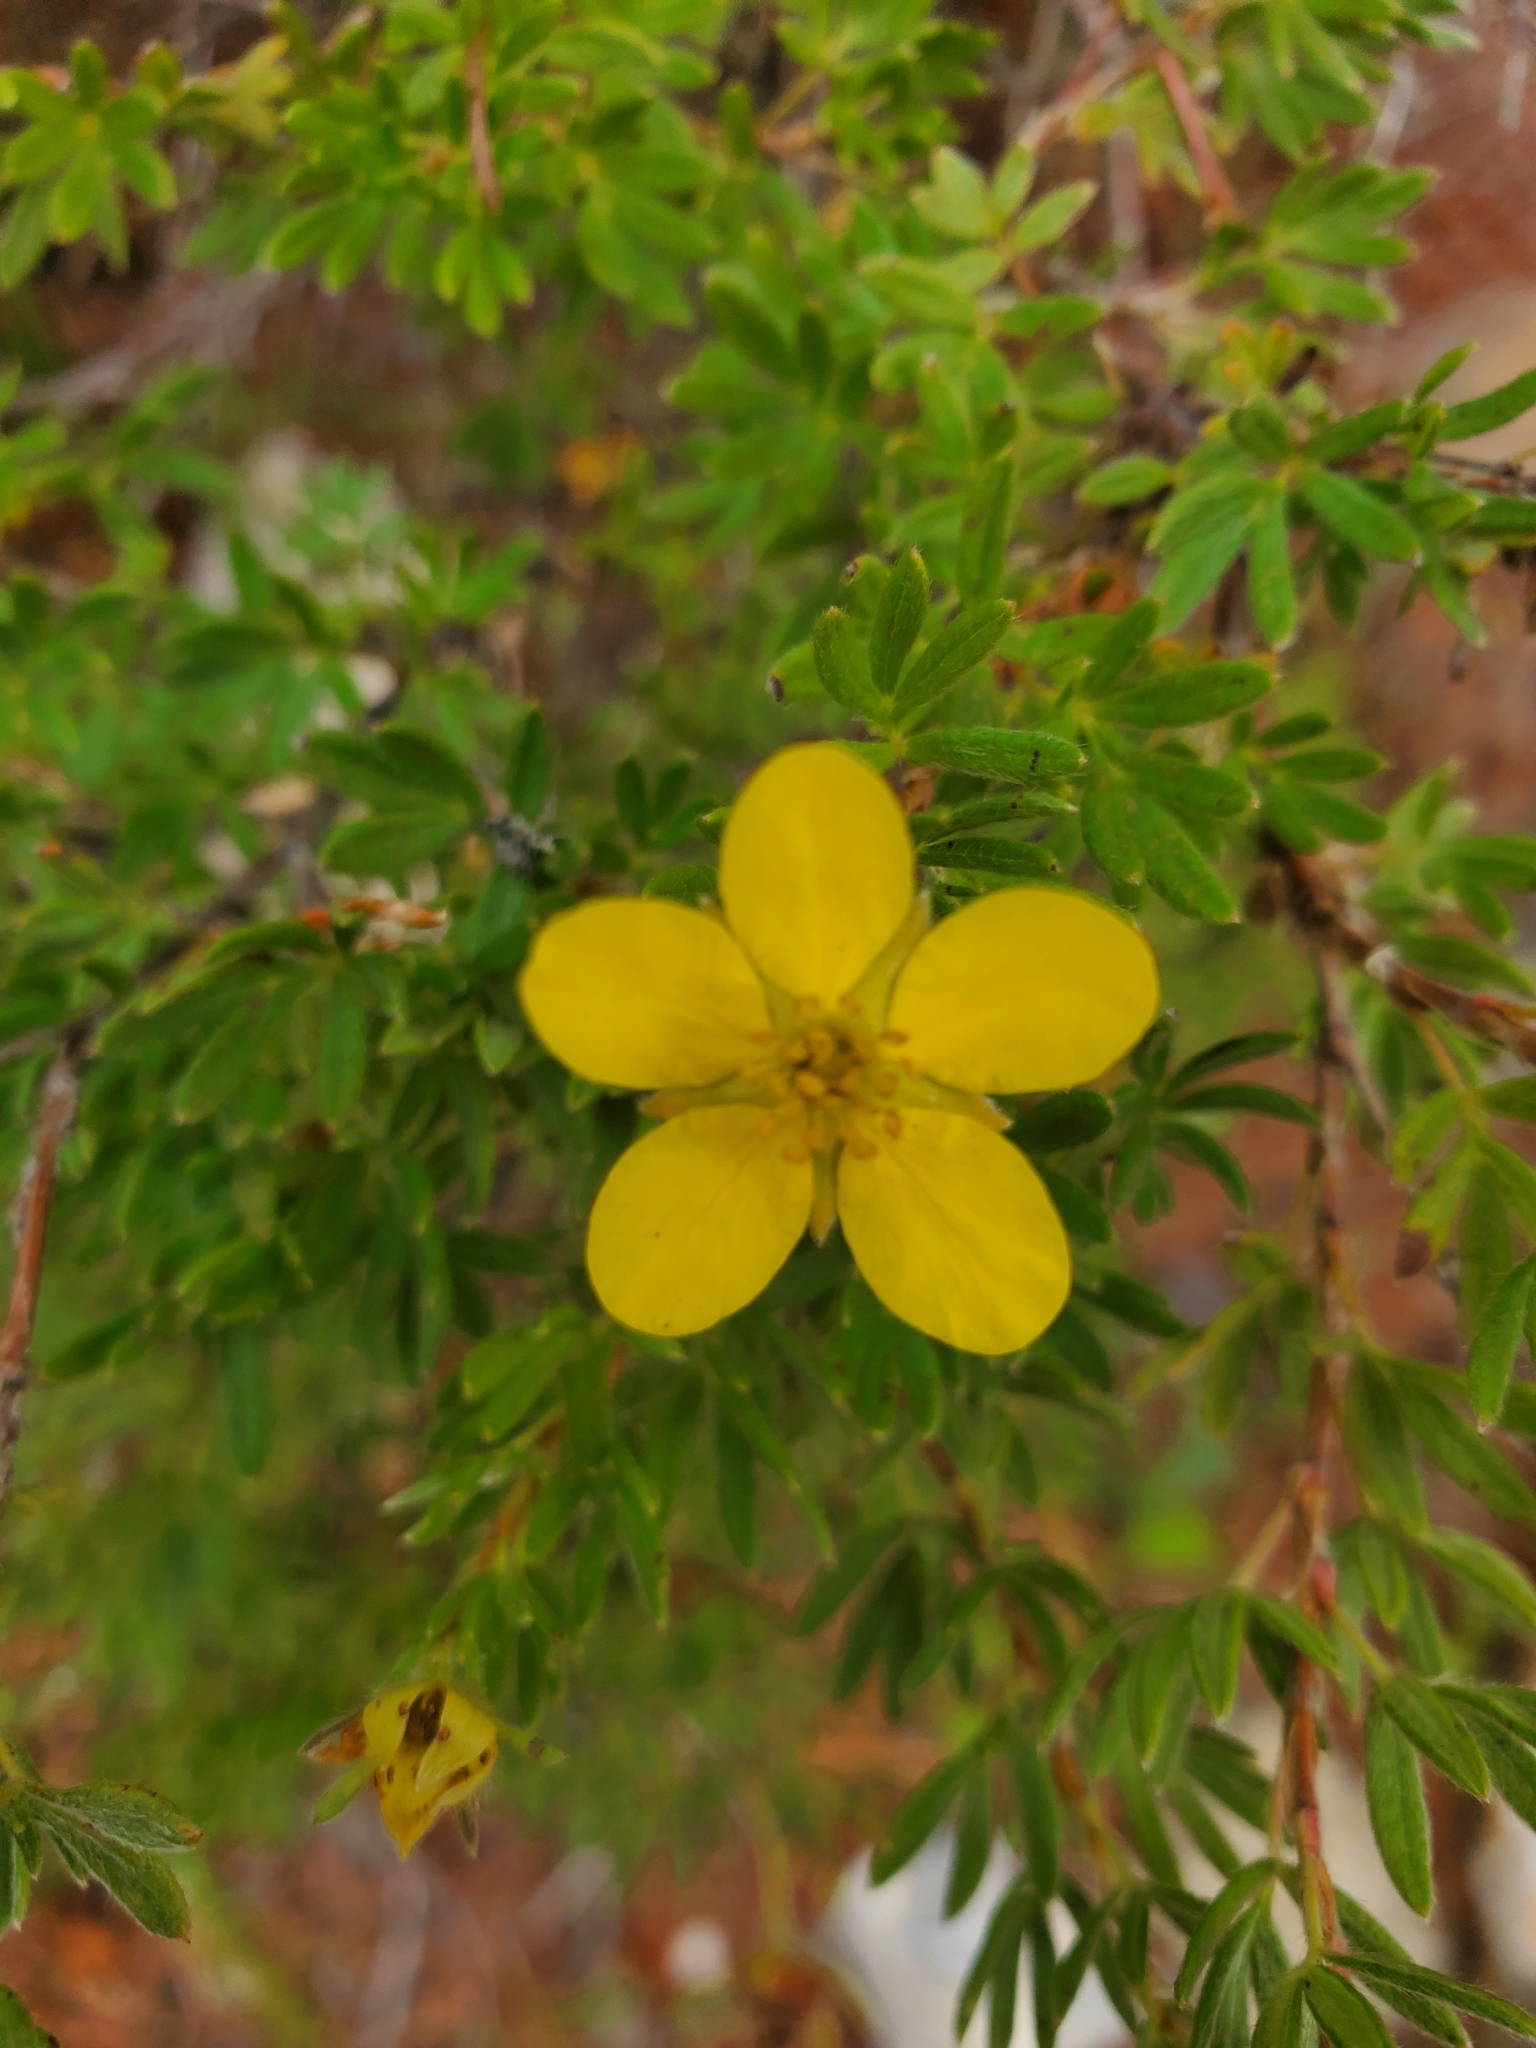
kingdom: Plantae
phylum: Tracheophyta
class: Magnoliopsida
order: Rosales
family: Rosaceae
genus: Dasiphora
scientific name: Dasiphora fruticosa
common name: Shrubby cinquefoil
